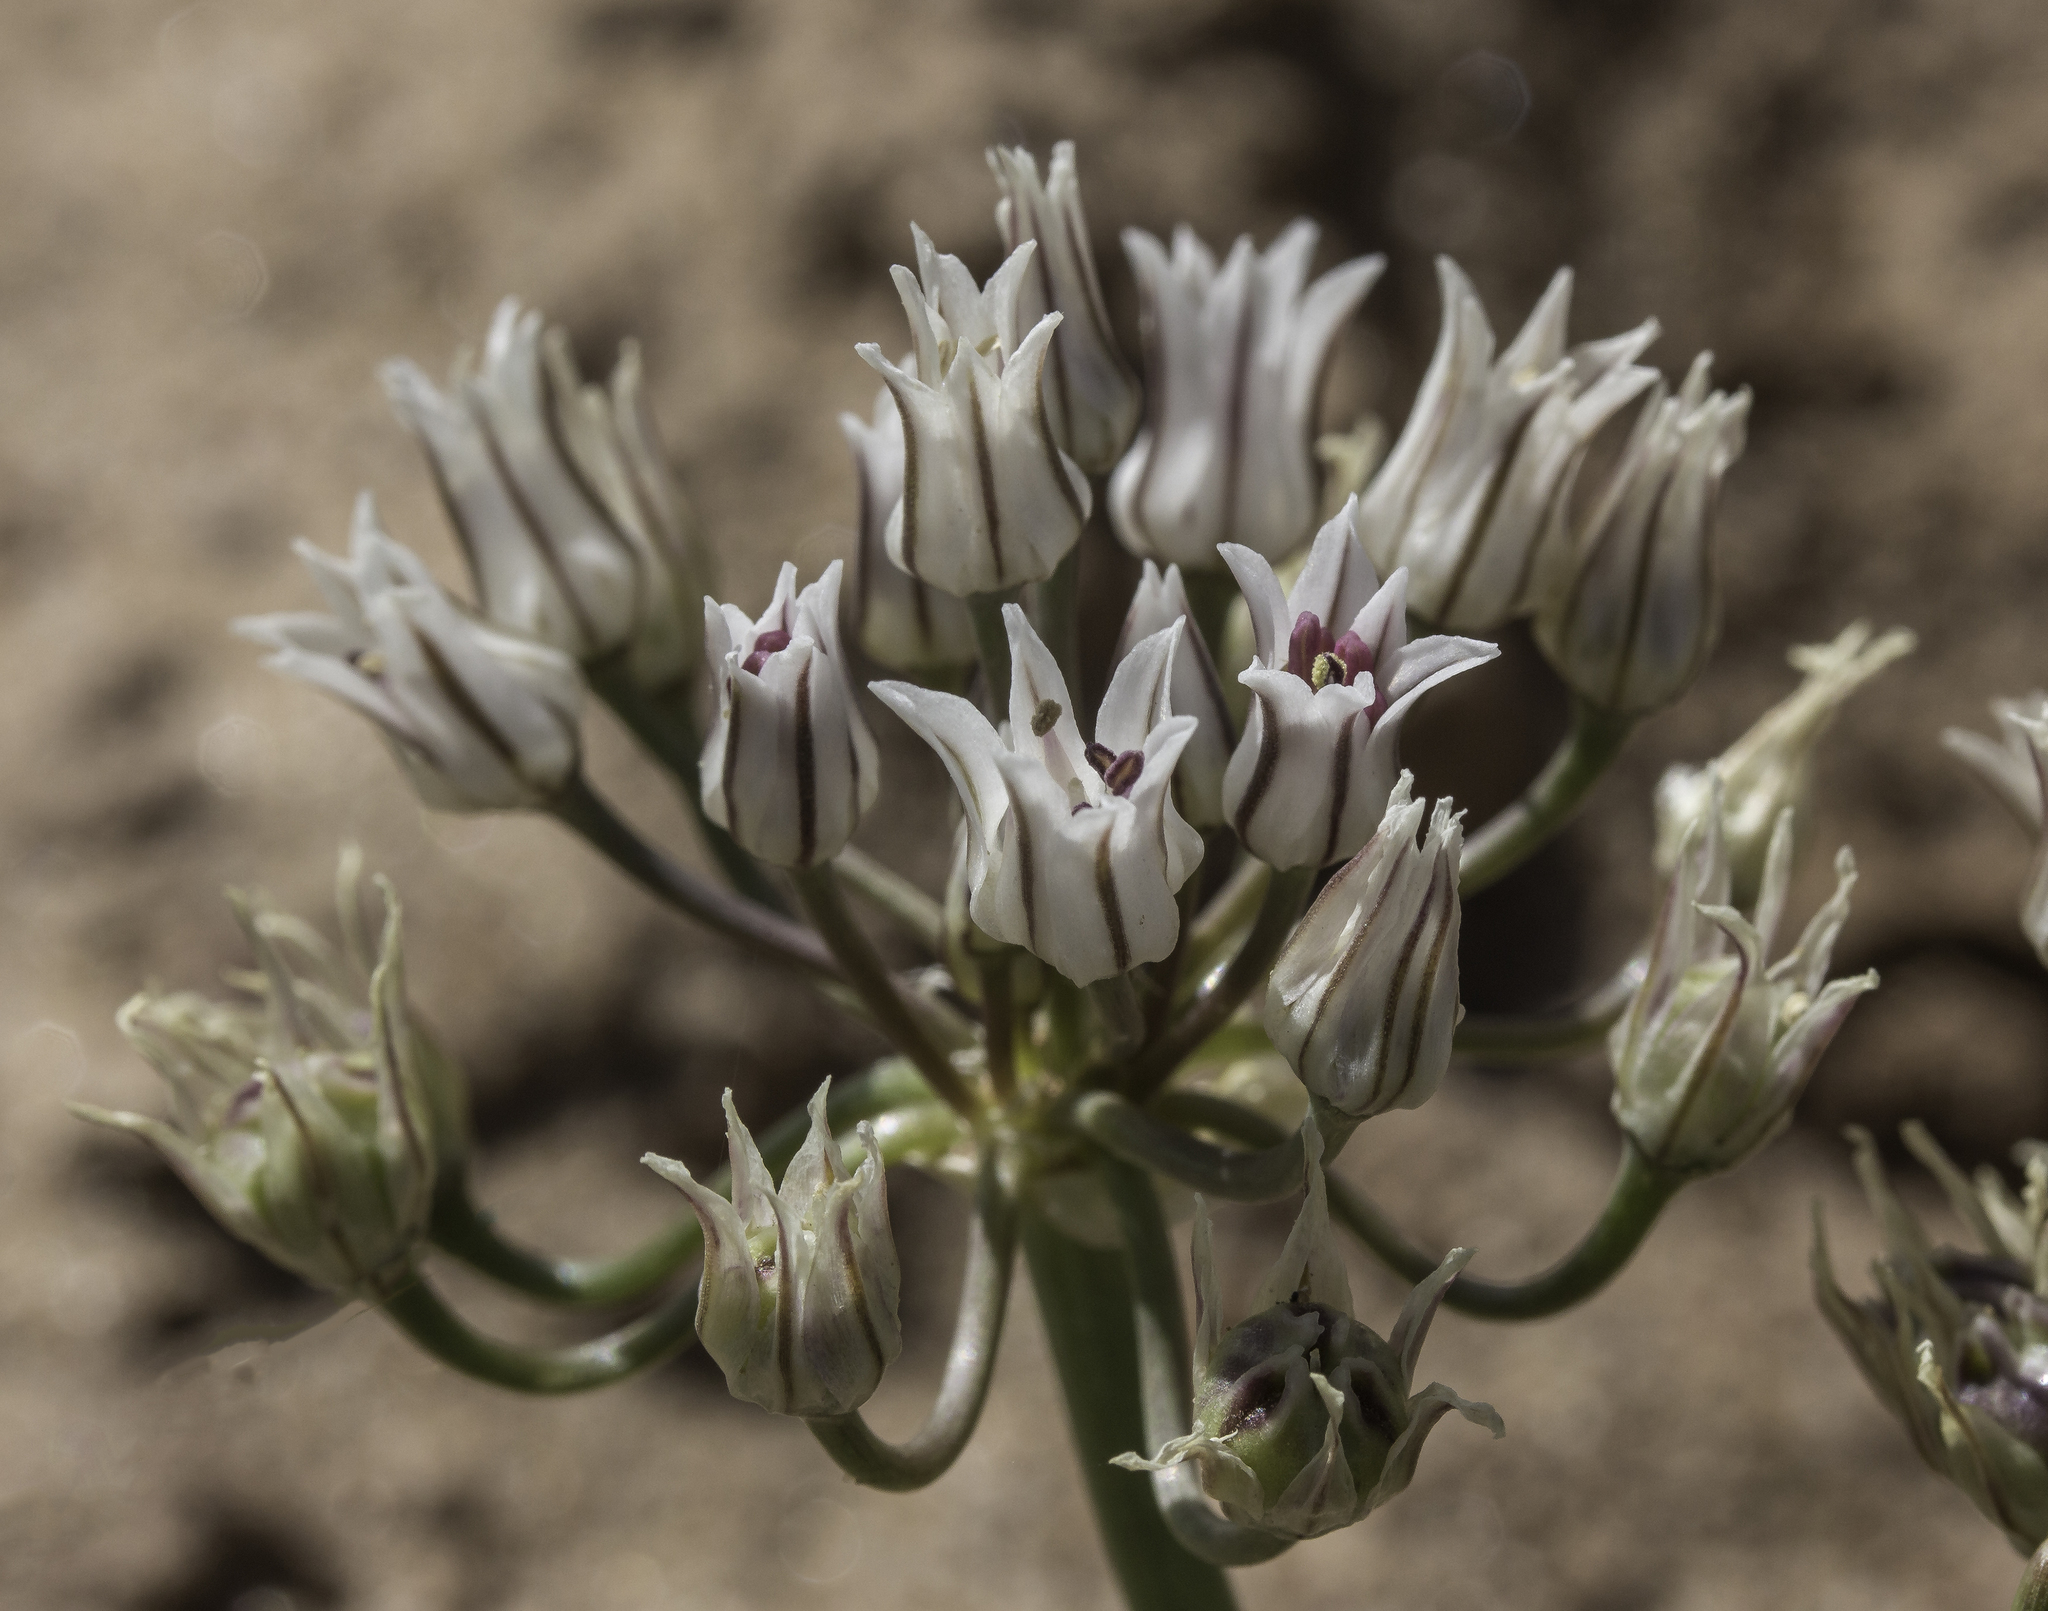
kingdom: Plantae
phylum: Tracheophyta
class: Liliopsida
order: Asparagales
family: Amaryllidaceae
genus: Allium
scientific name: Allium macropetalum
